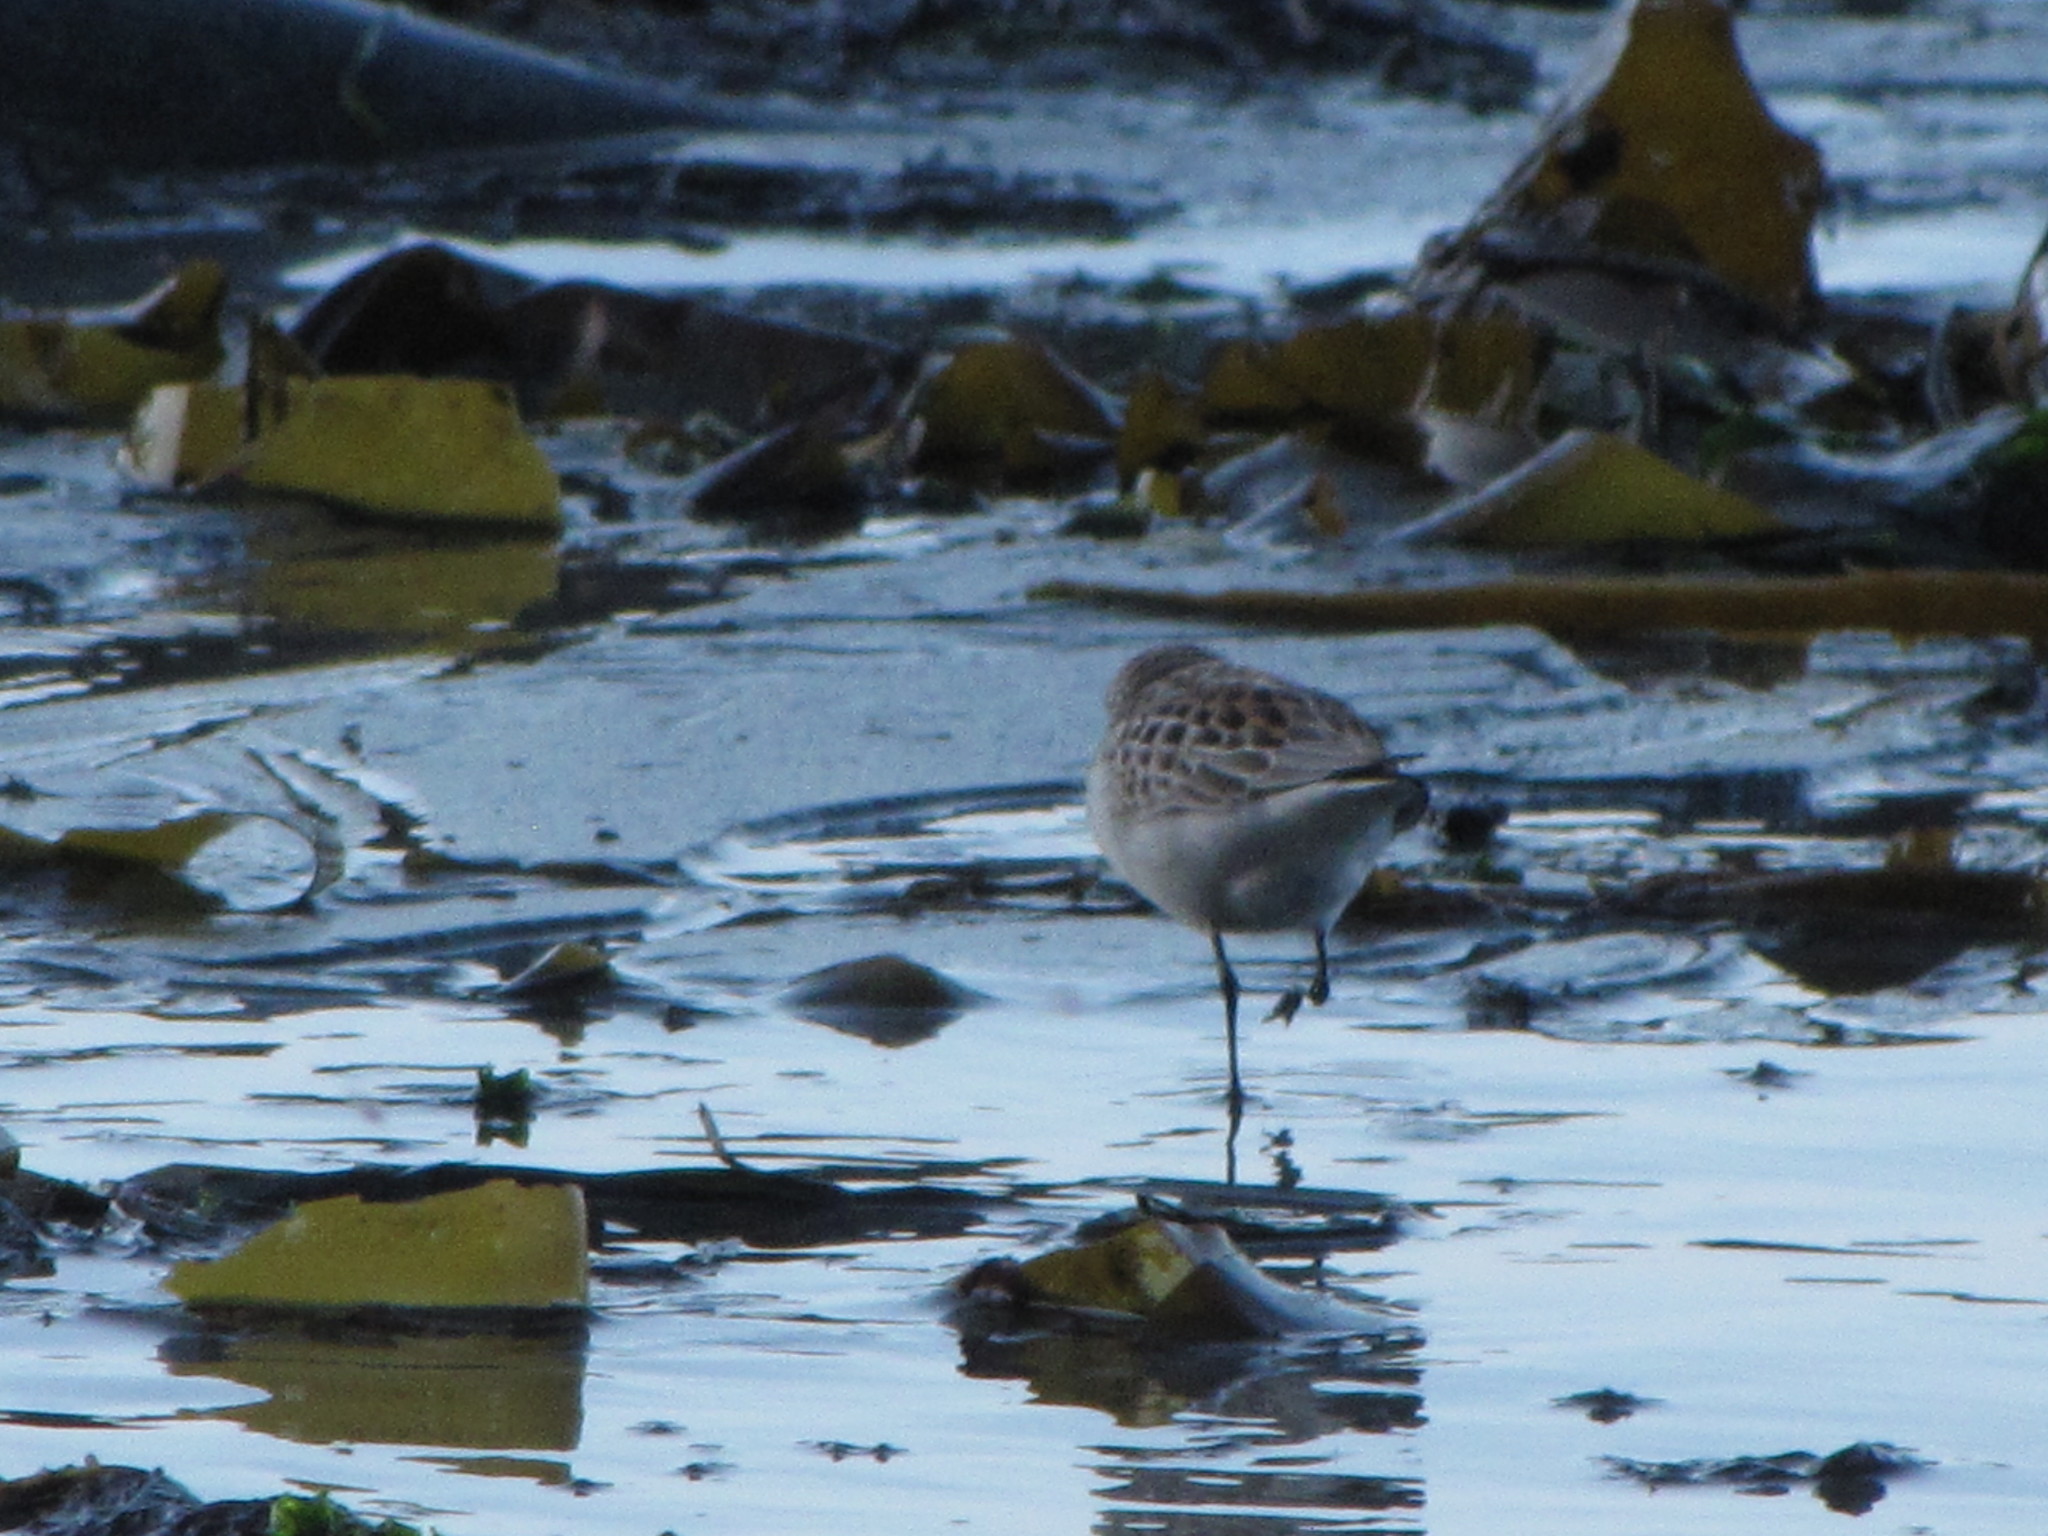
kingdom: Animalia
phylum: Chordata
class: Aves
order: Charadriiformes
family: Scolopacidae
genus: Calidris
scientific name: Calidris mauri
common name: Western sandpiper
